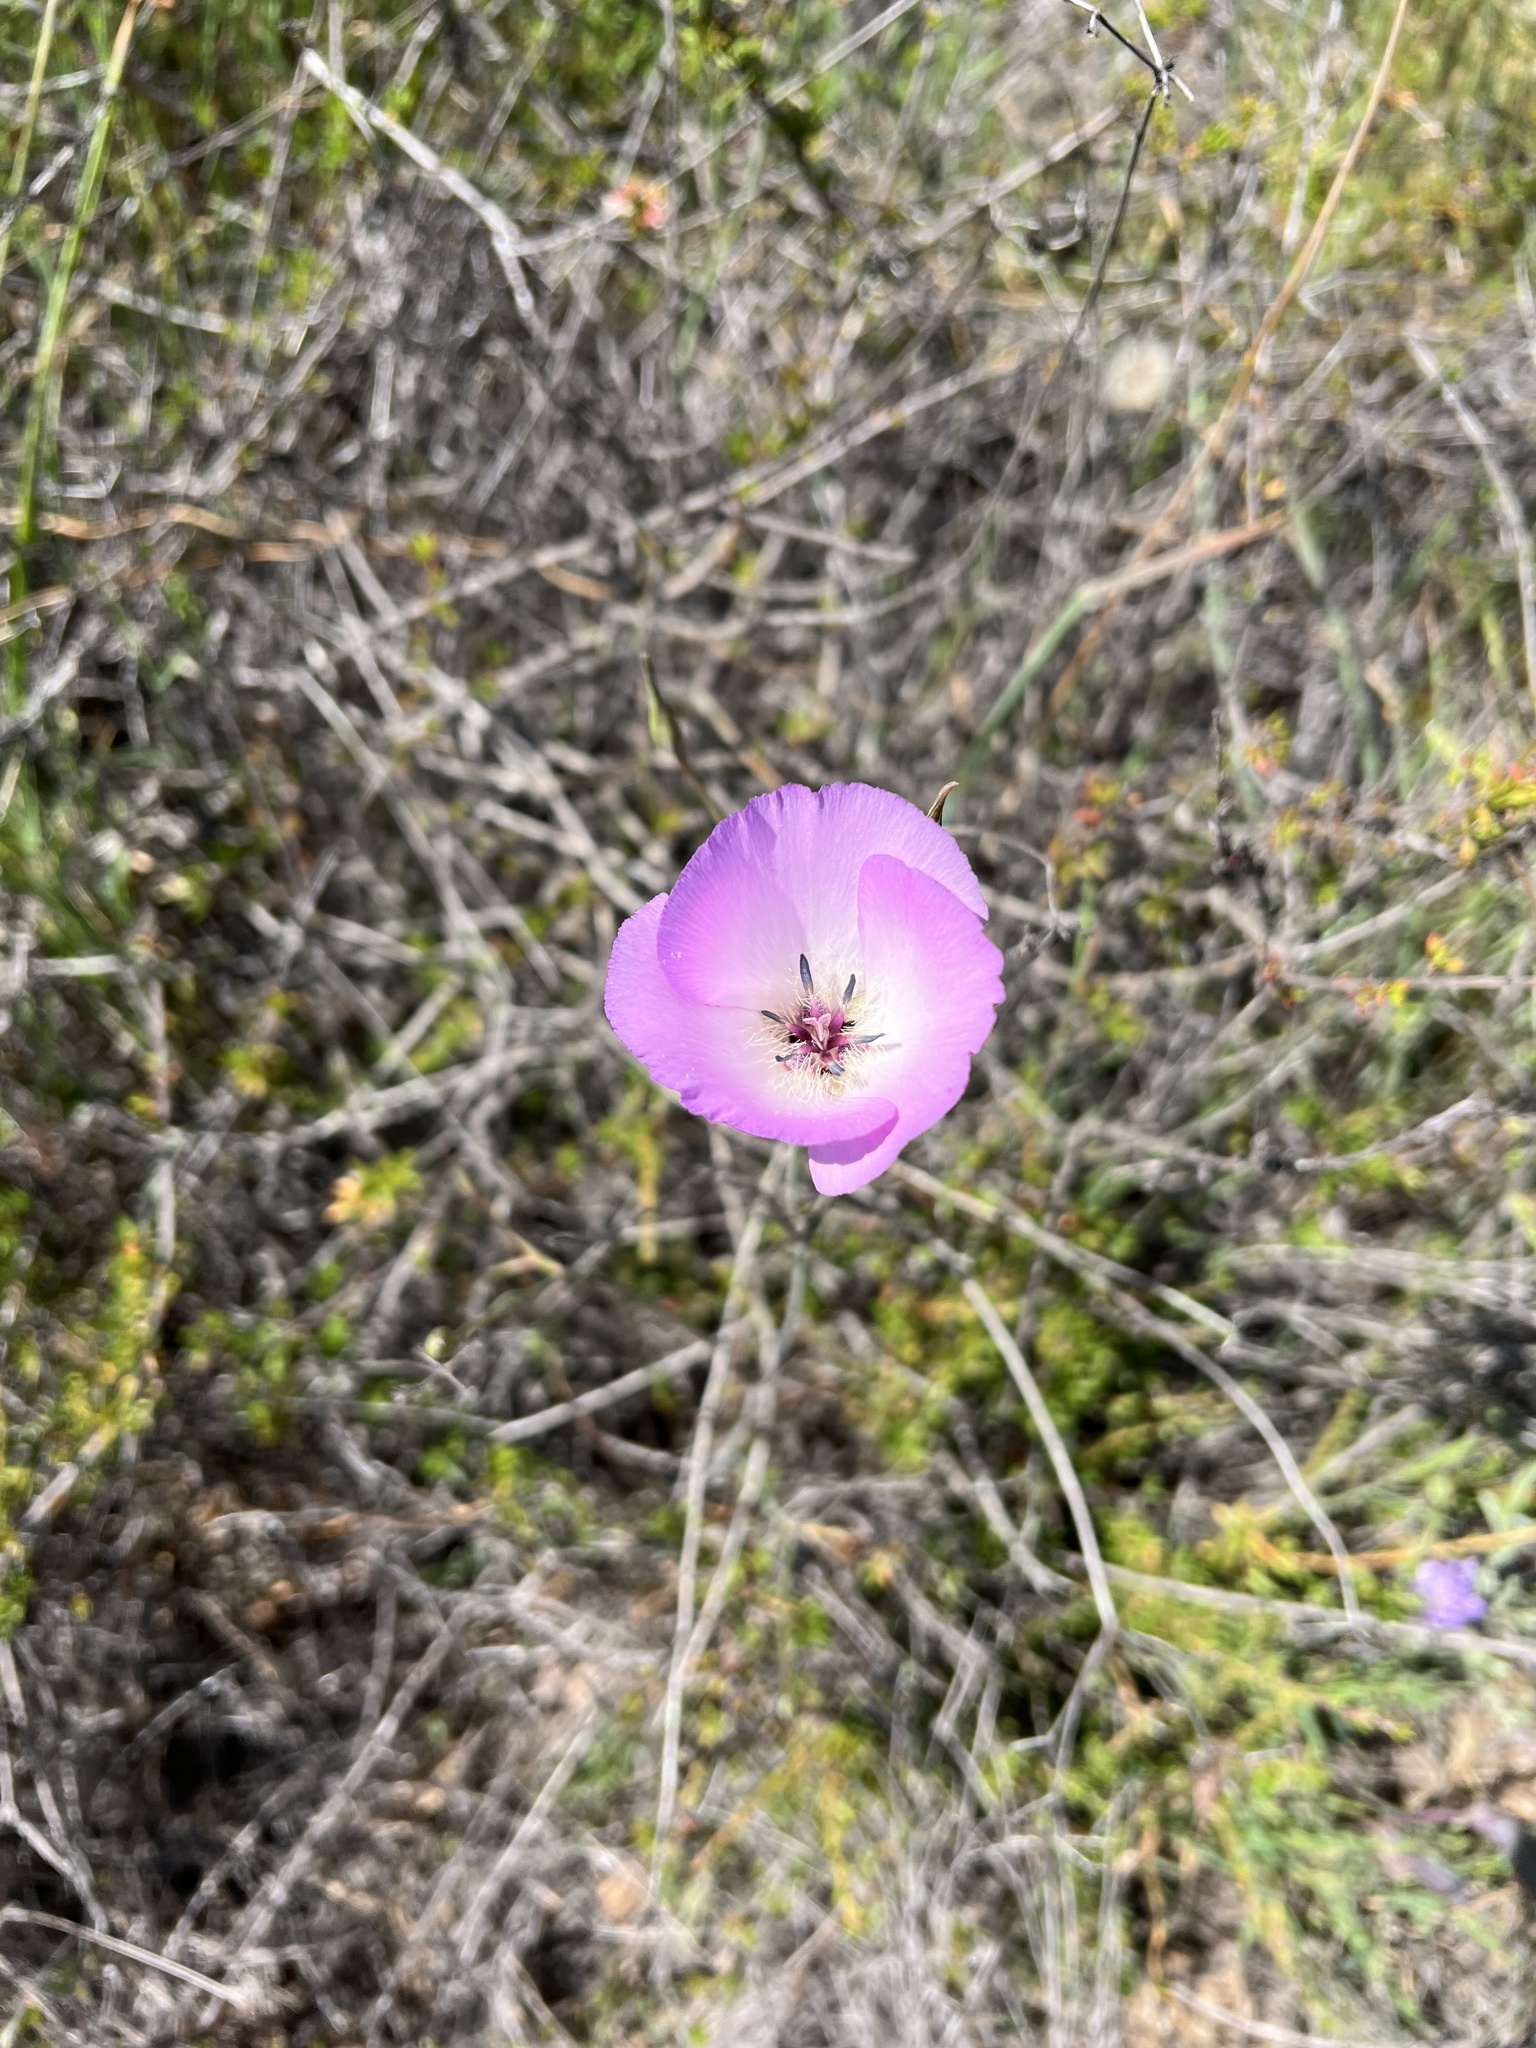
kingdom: Plantae
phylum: Tracheophyta
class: Liliopsida
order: Liliales
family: Liliaceae
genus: Calochortus
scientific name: Calochortus splendens
